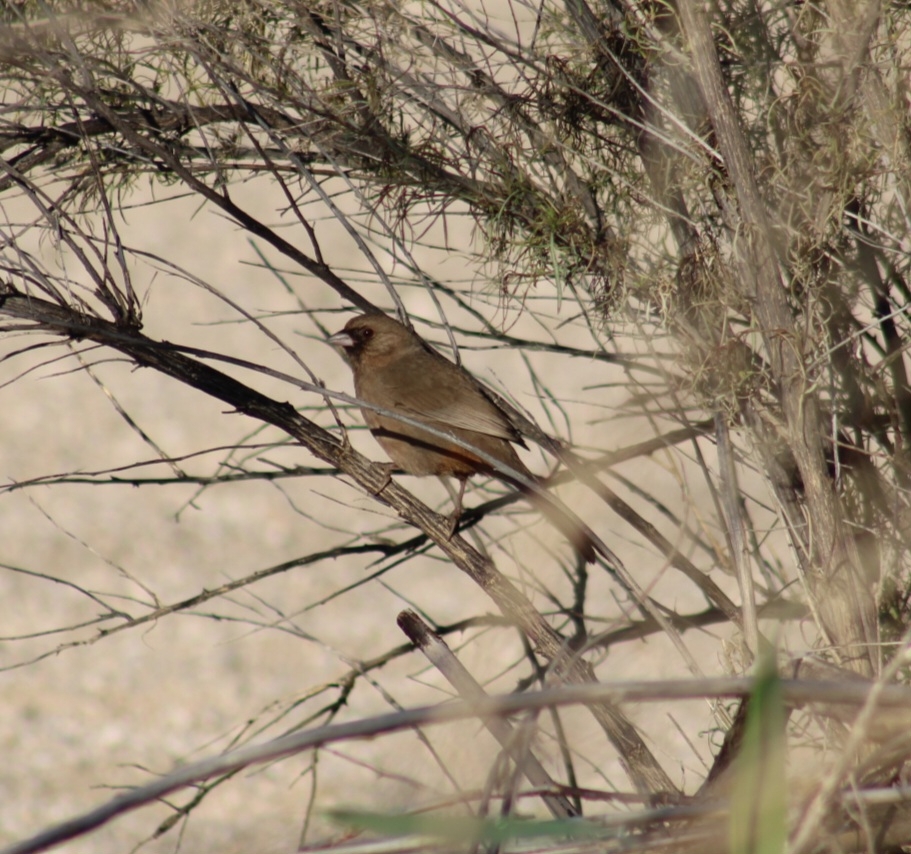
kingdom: Animalia
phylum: Chordata
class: Aves
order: Passeriformes
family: Passerellidae
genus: Melozone
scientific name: Melozone aberti
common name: Abert's towhee
